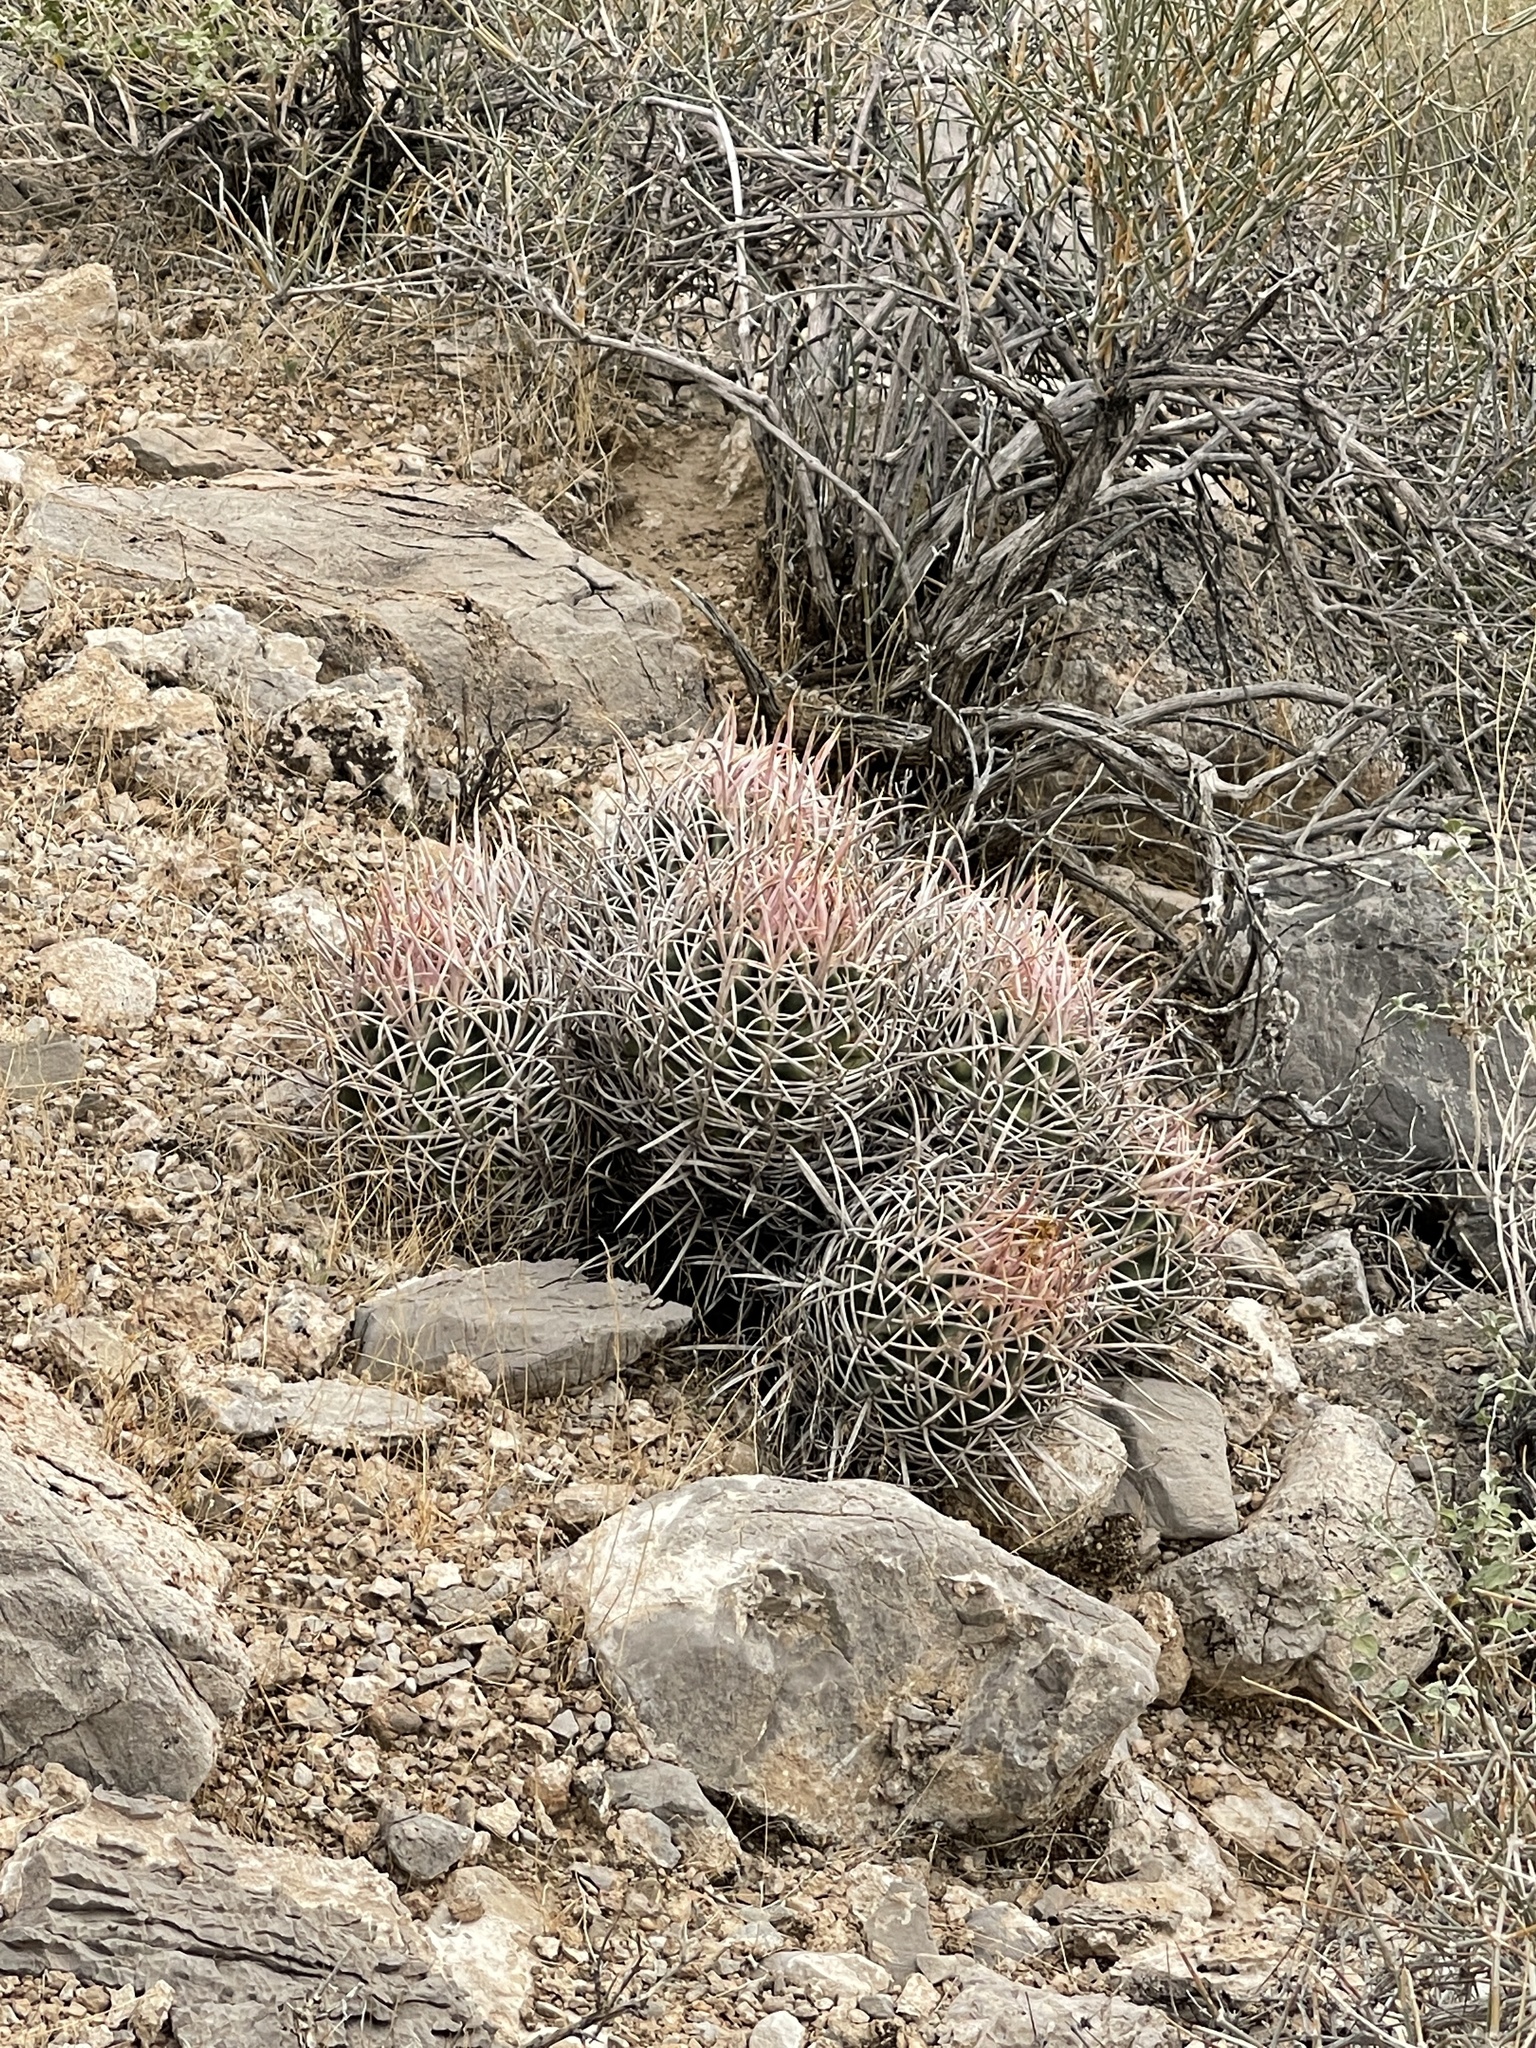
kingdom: Plantae
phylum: Tracheophyta
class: Magnoliopsida
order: Caryophyllales
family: Cactaceae
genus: Echinocactus
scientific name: Echinocactus polycephalus
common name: Cottontop cactus
